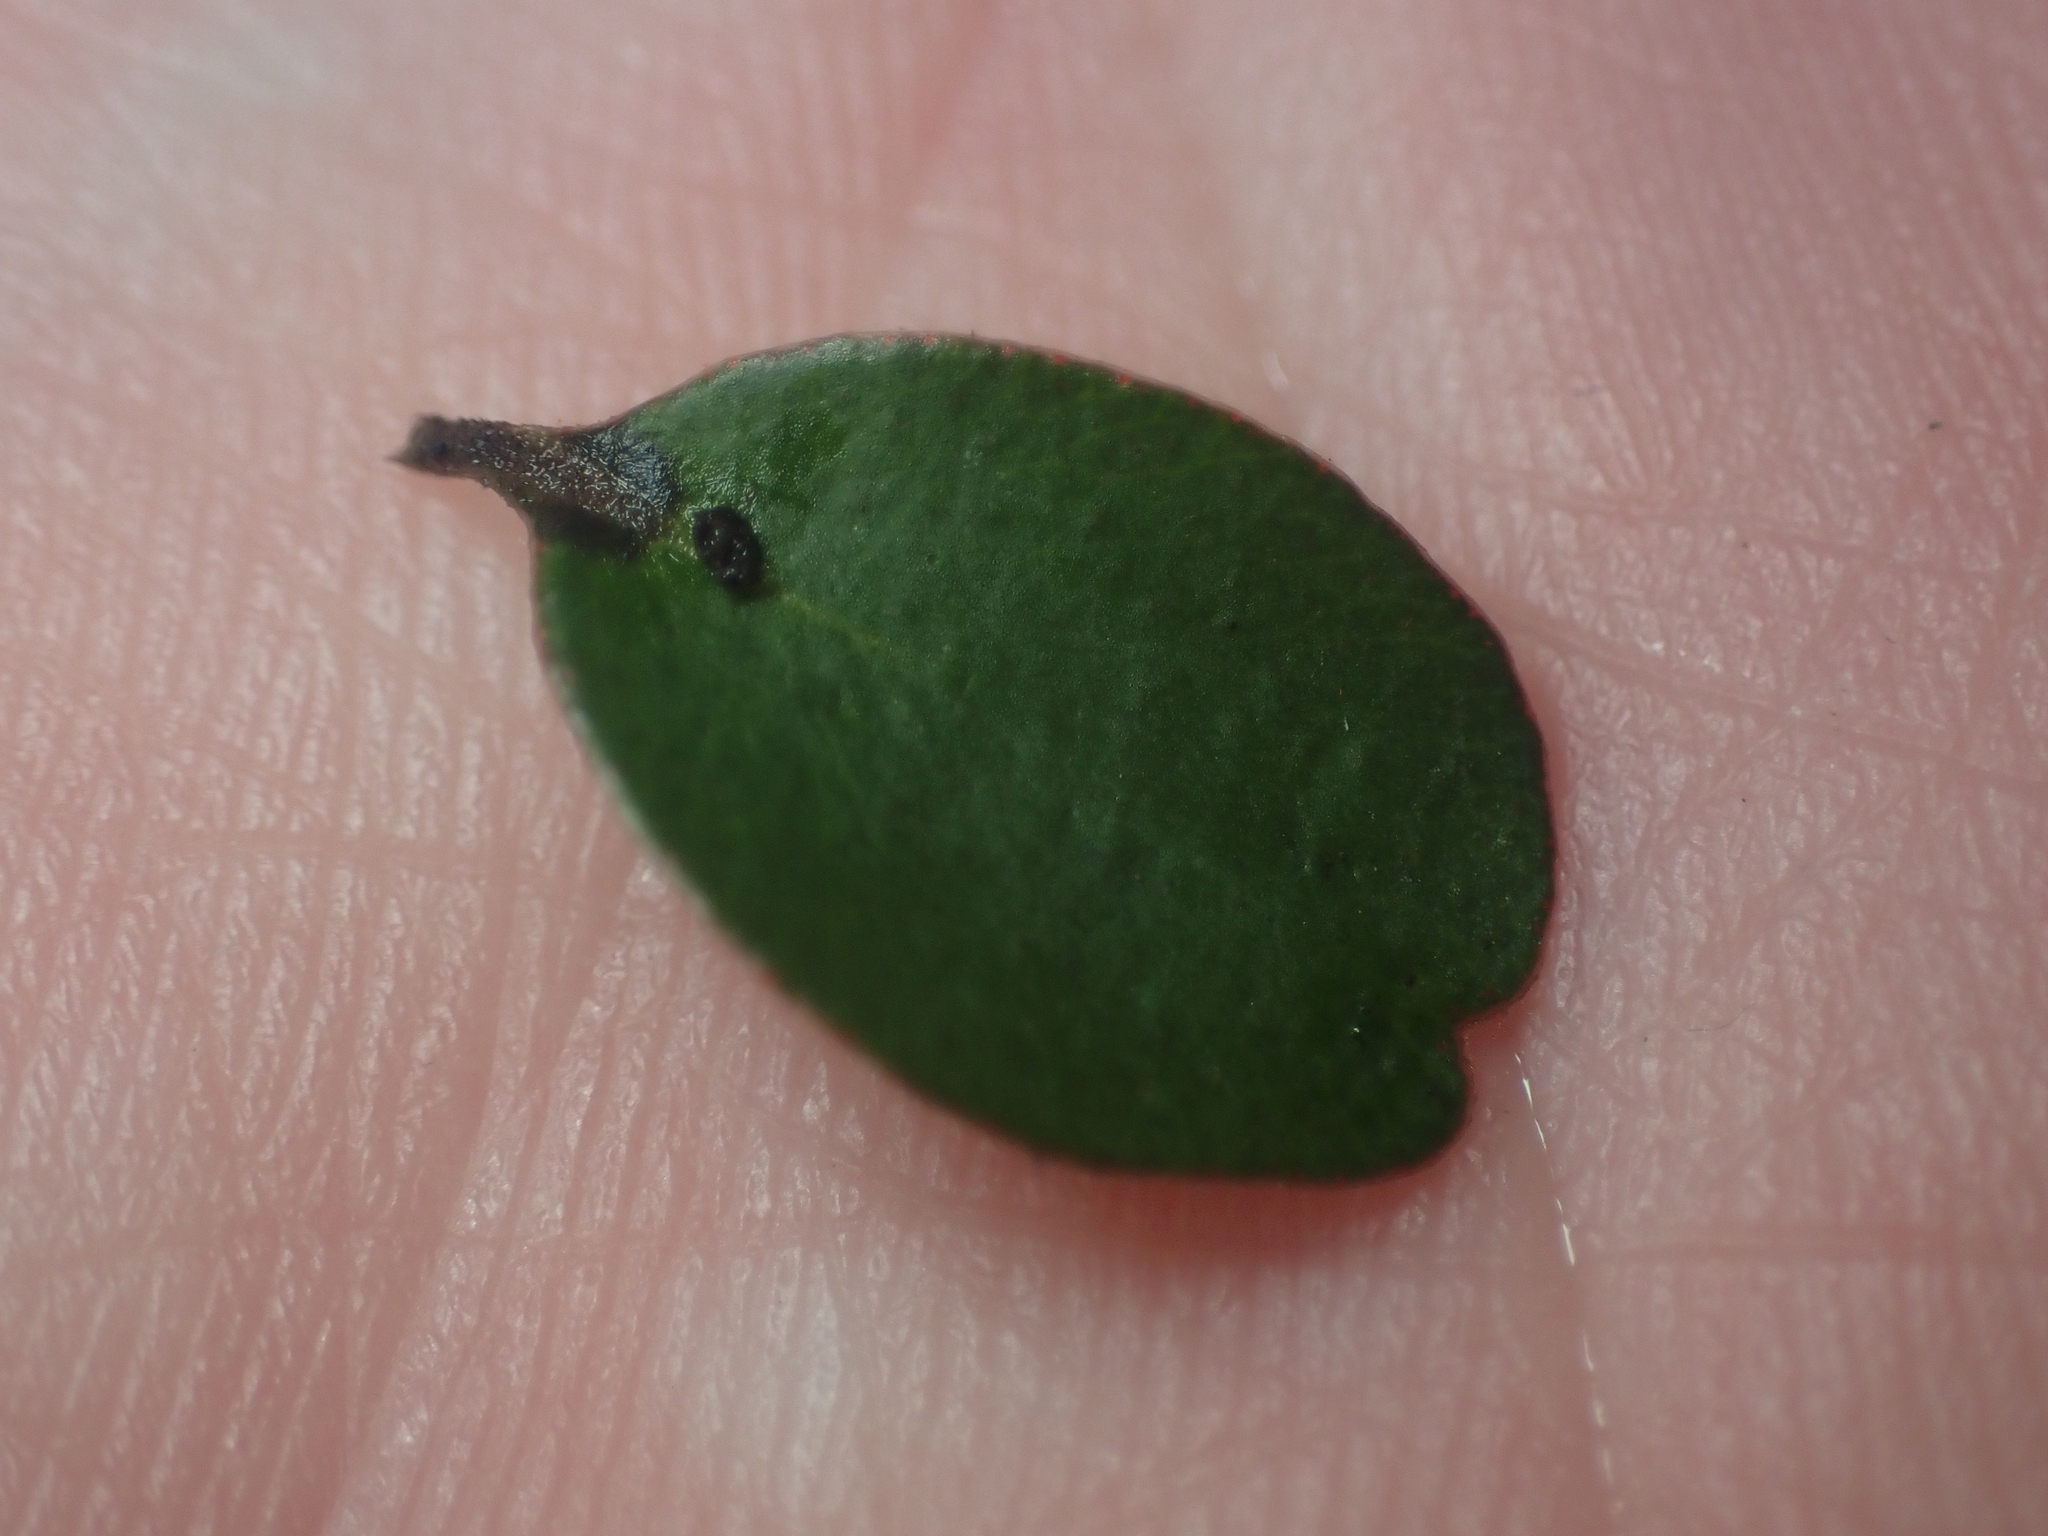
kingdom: Plantae
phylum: Tracheophyta
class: Magnoliopsida
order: Santalales
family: Viscaceae
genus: Korthalsella
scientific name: Korthalsella clavata
